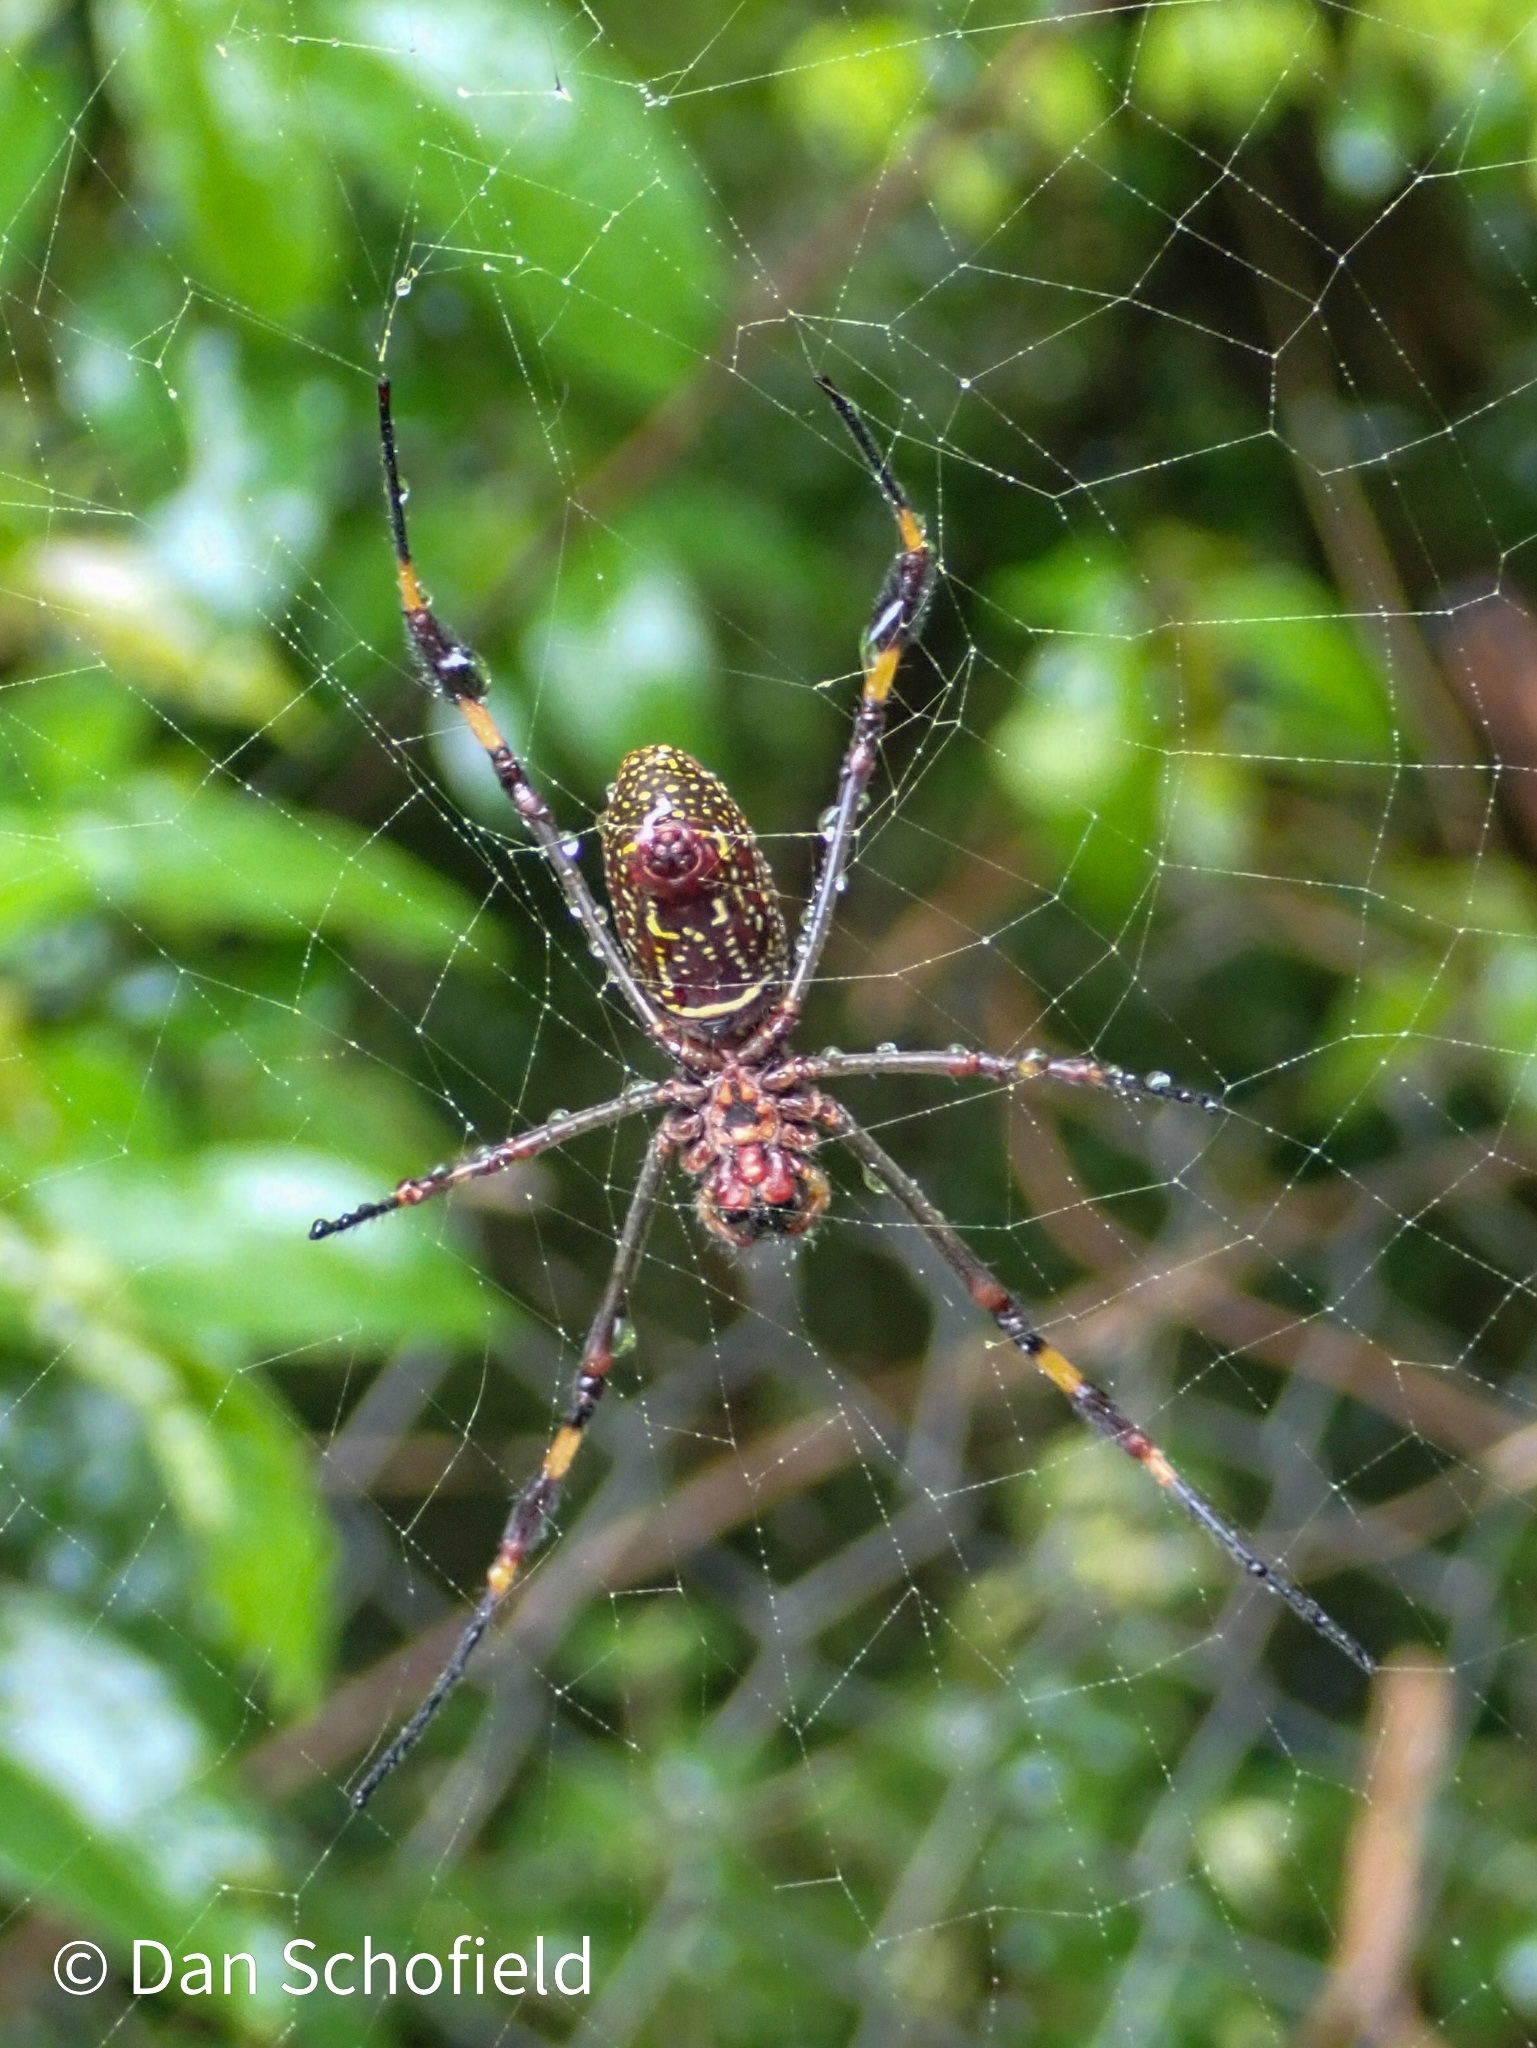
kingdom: Animalia
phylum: Arthropoda
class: Arachnida
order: Araneae
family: Araneidae
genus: Trichonephila
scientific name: Trichonephila clavipes
